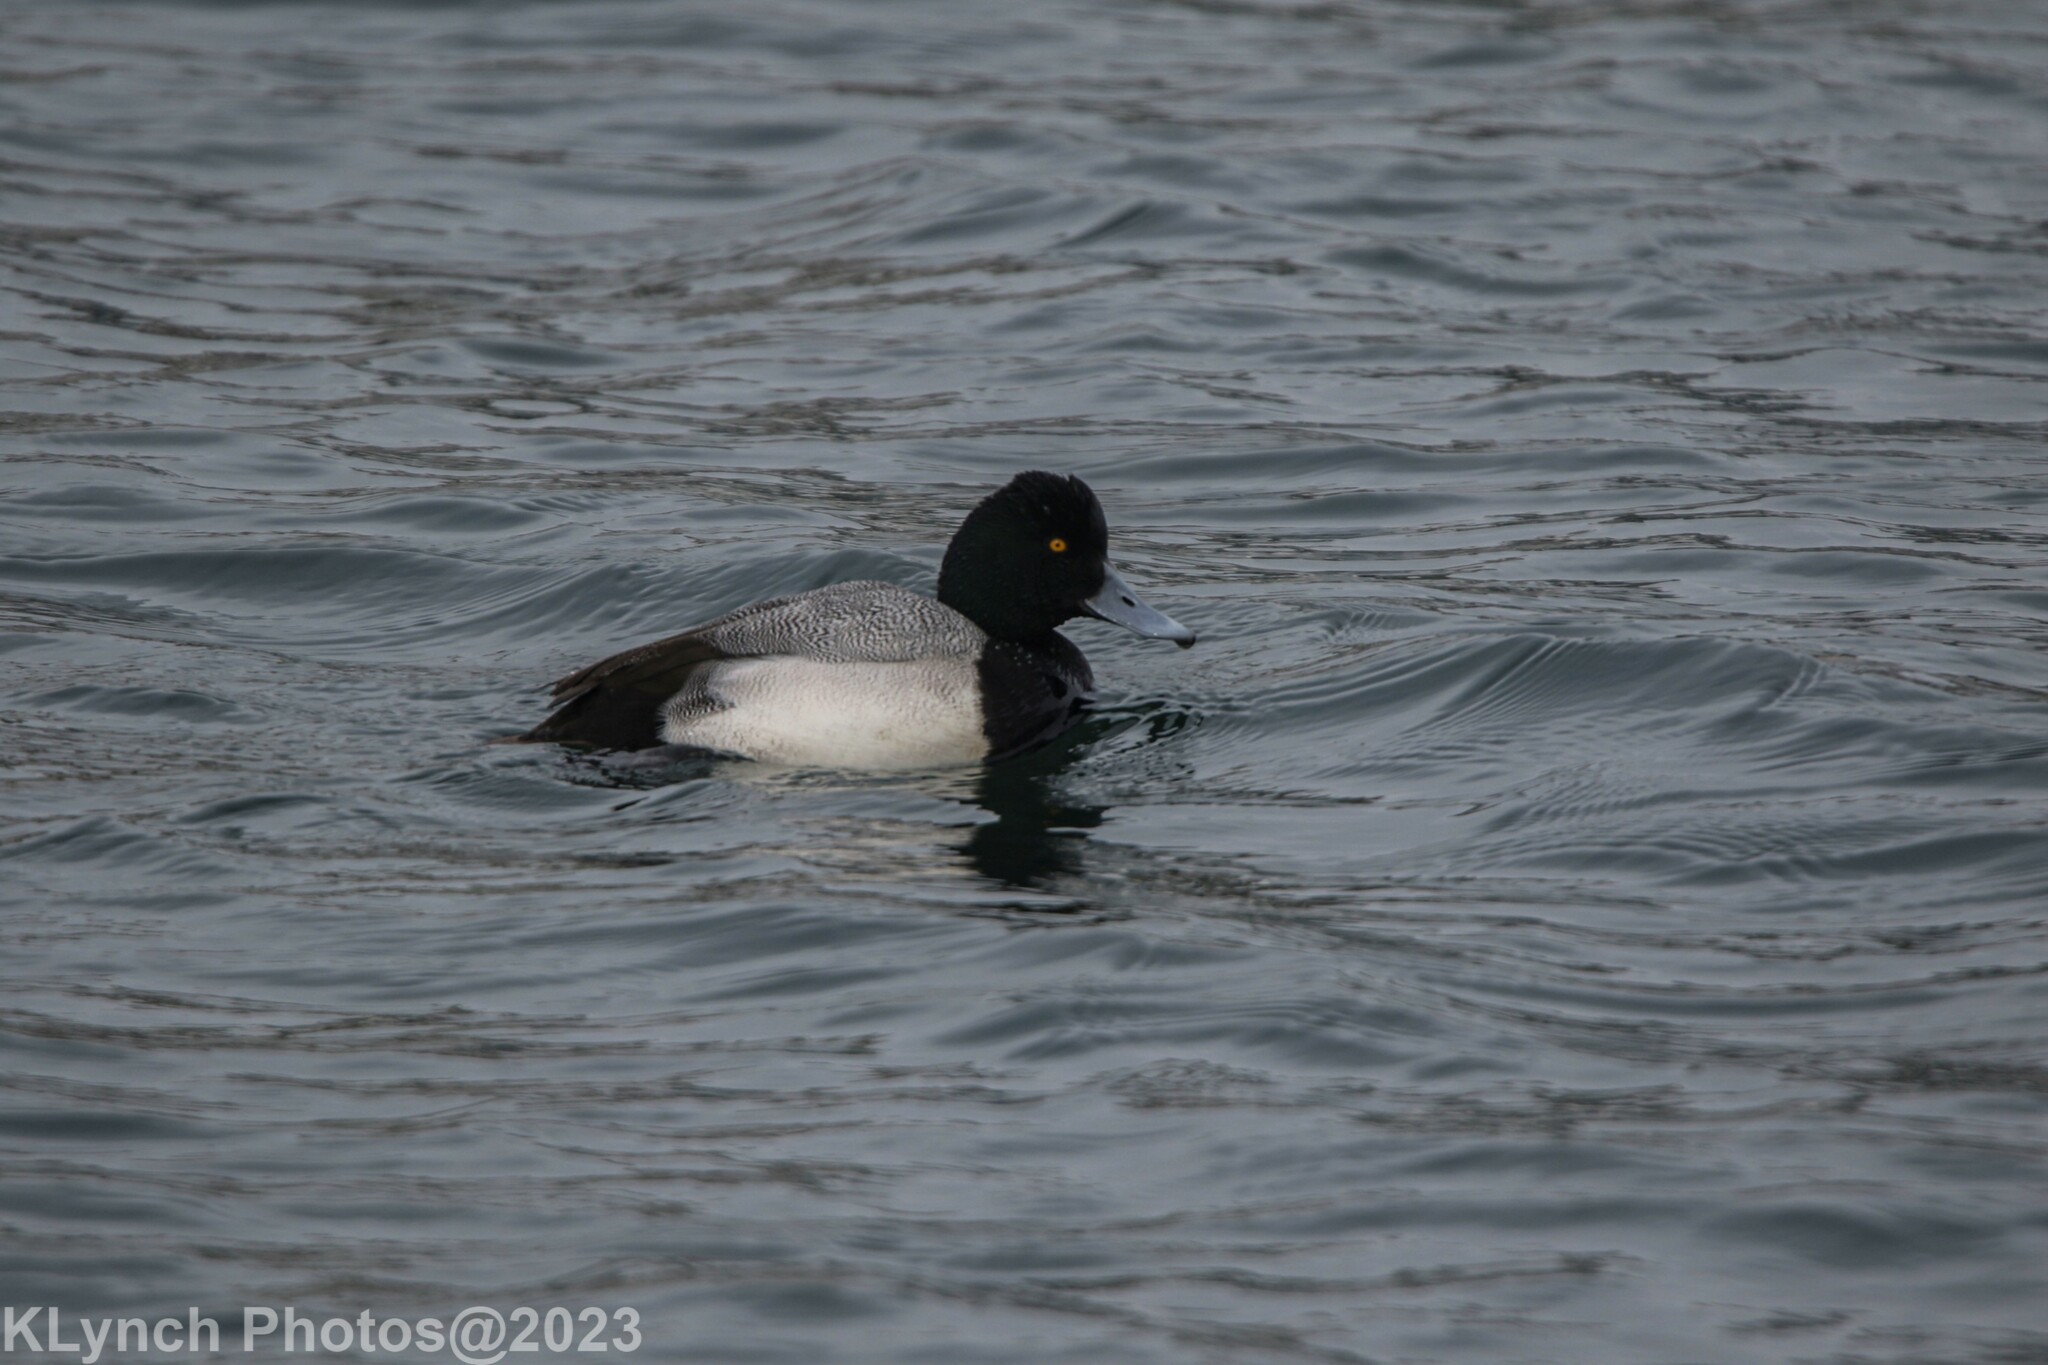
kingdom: Animalia
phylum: Chordata
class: Aves
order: Anseriformes
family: Anatidae
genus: Aythya
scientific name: Aythya marila
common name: Greater scaup
